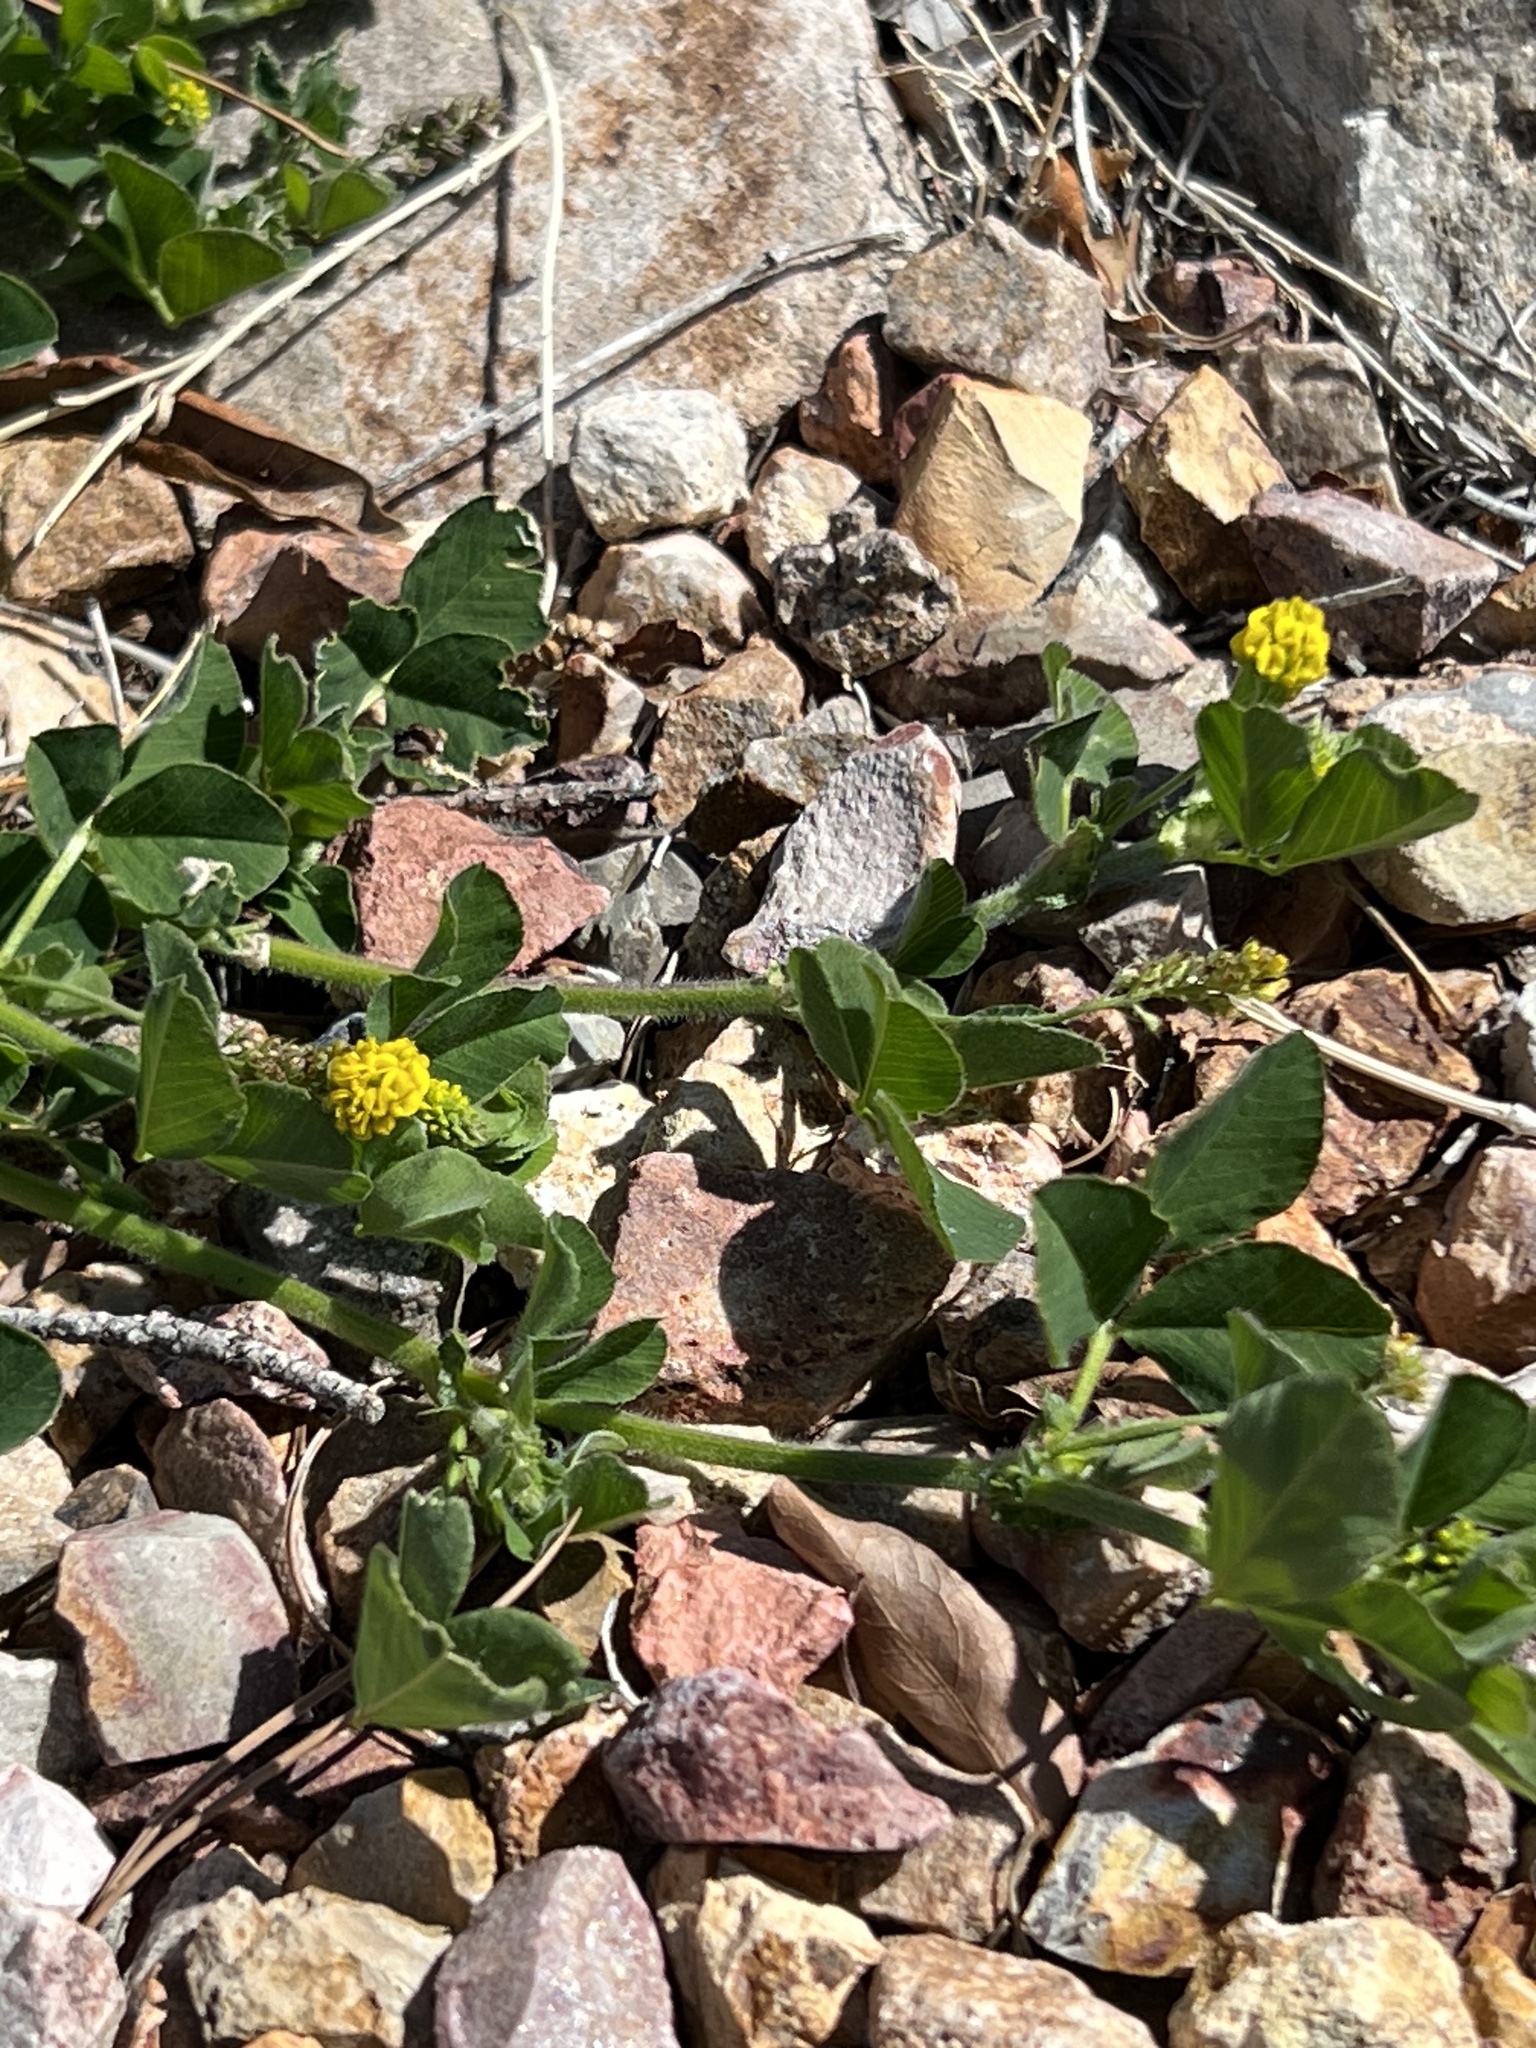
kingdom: Plantae
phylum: Tracheophyta
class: Magnoliopsida
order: Fabales
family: Fabaceae
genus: Medicago
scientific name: Medicago lupulina
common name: Black medick
